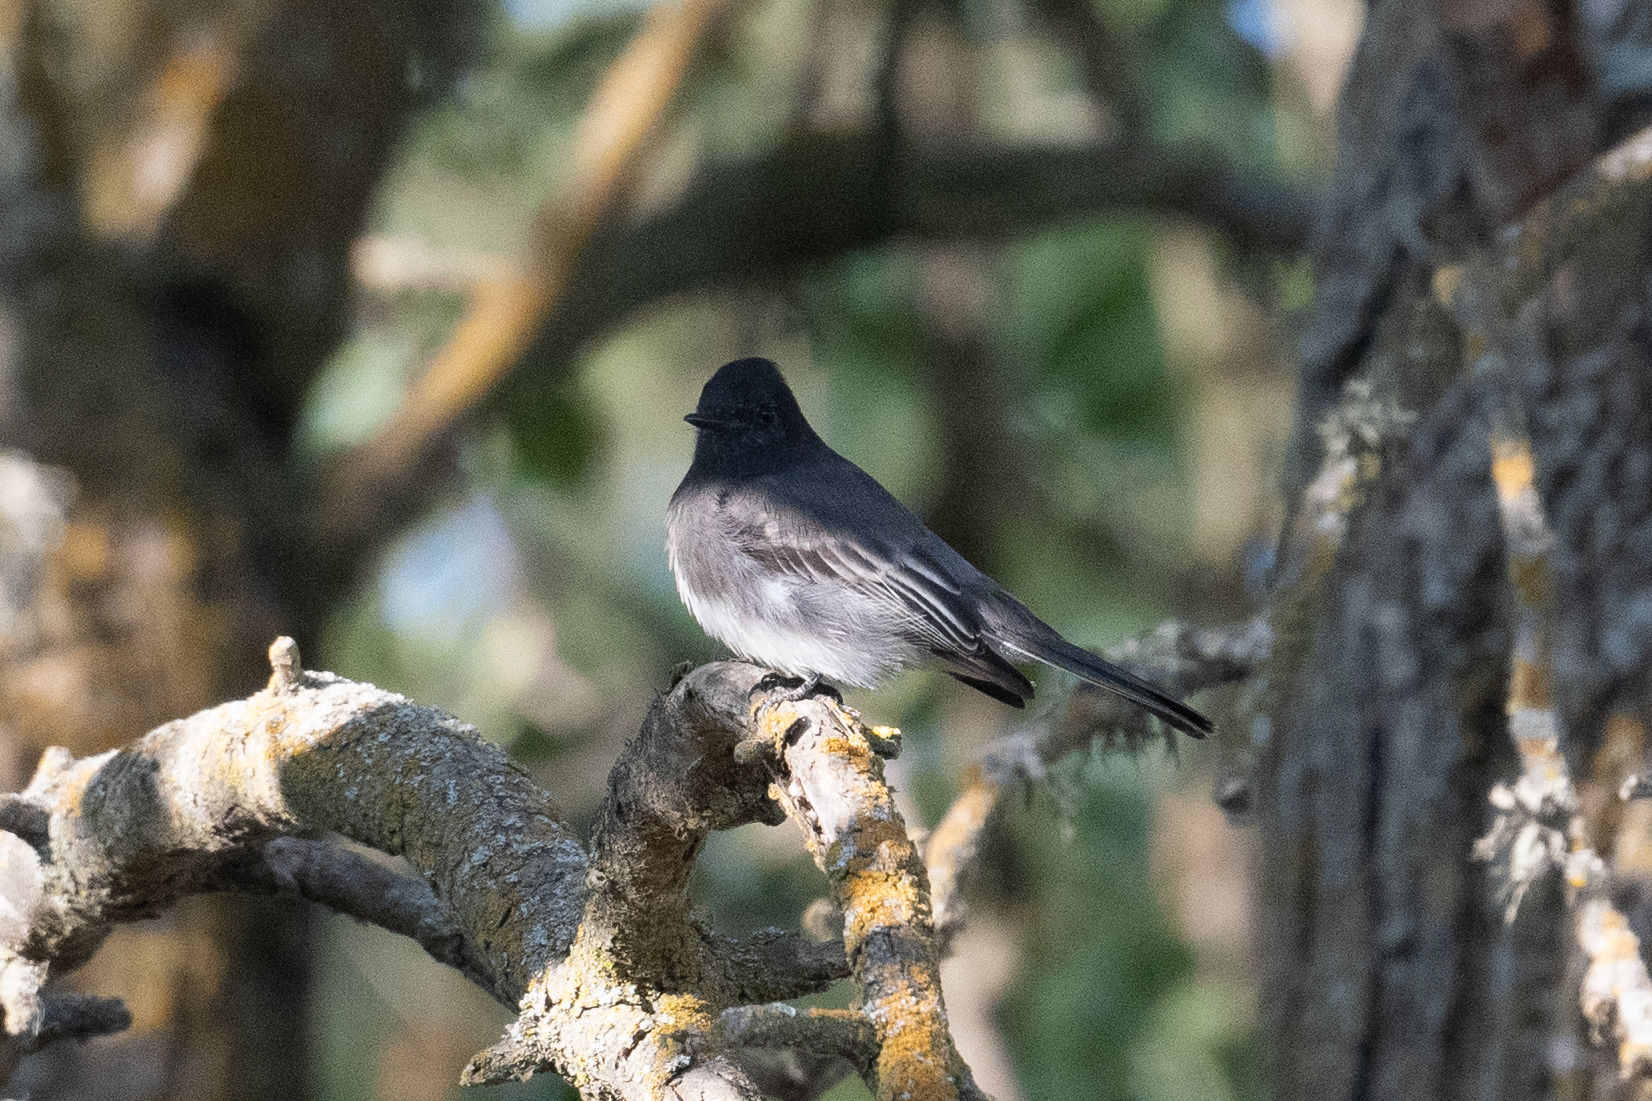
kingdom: Animalia
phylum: Chordata
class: Aves
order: Passeriformes
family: Tyrannidae
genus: Sayornis
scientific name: Sayornis nigricans
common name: Black phoebe
